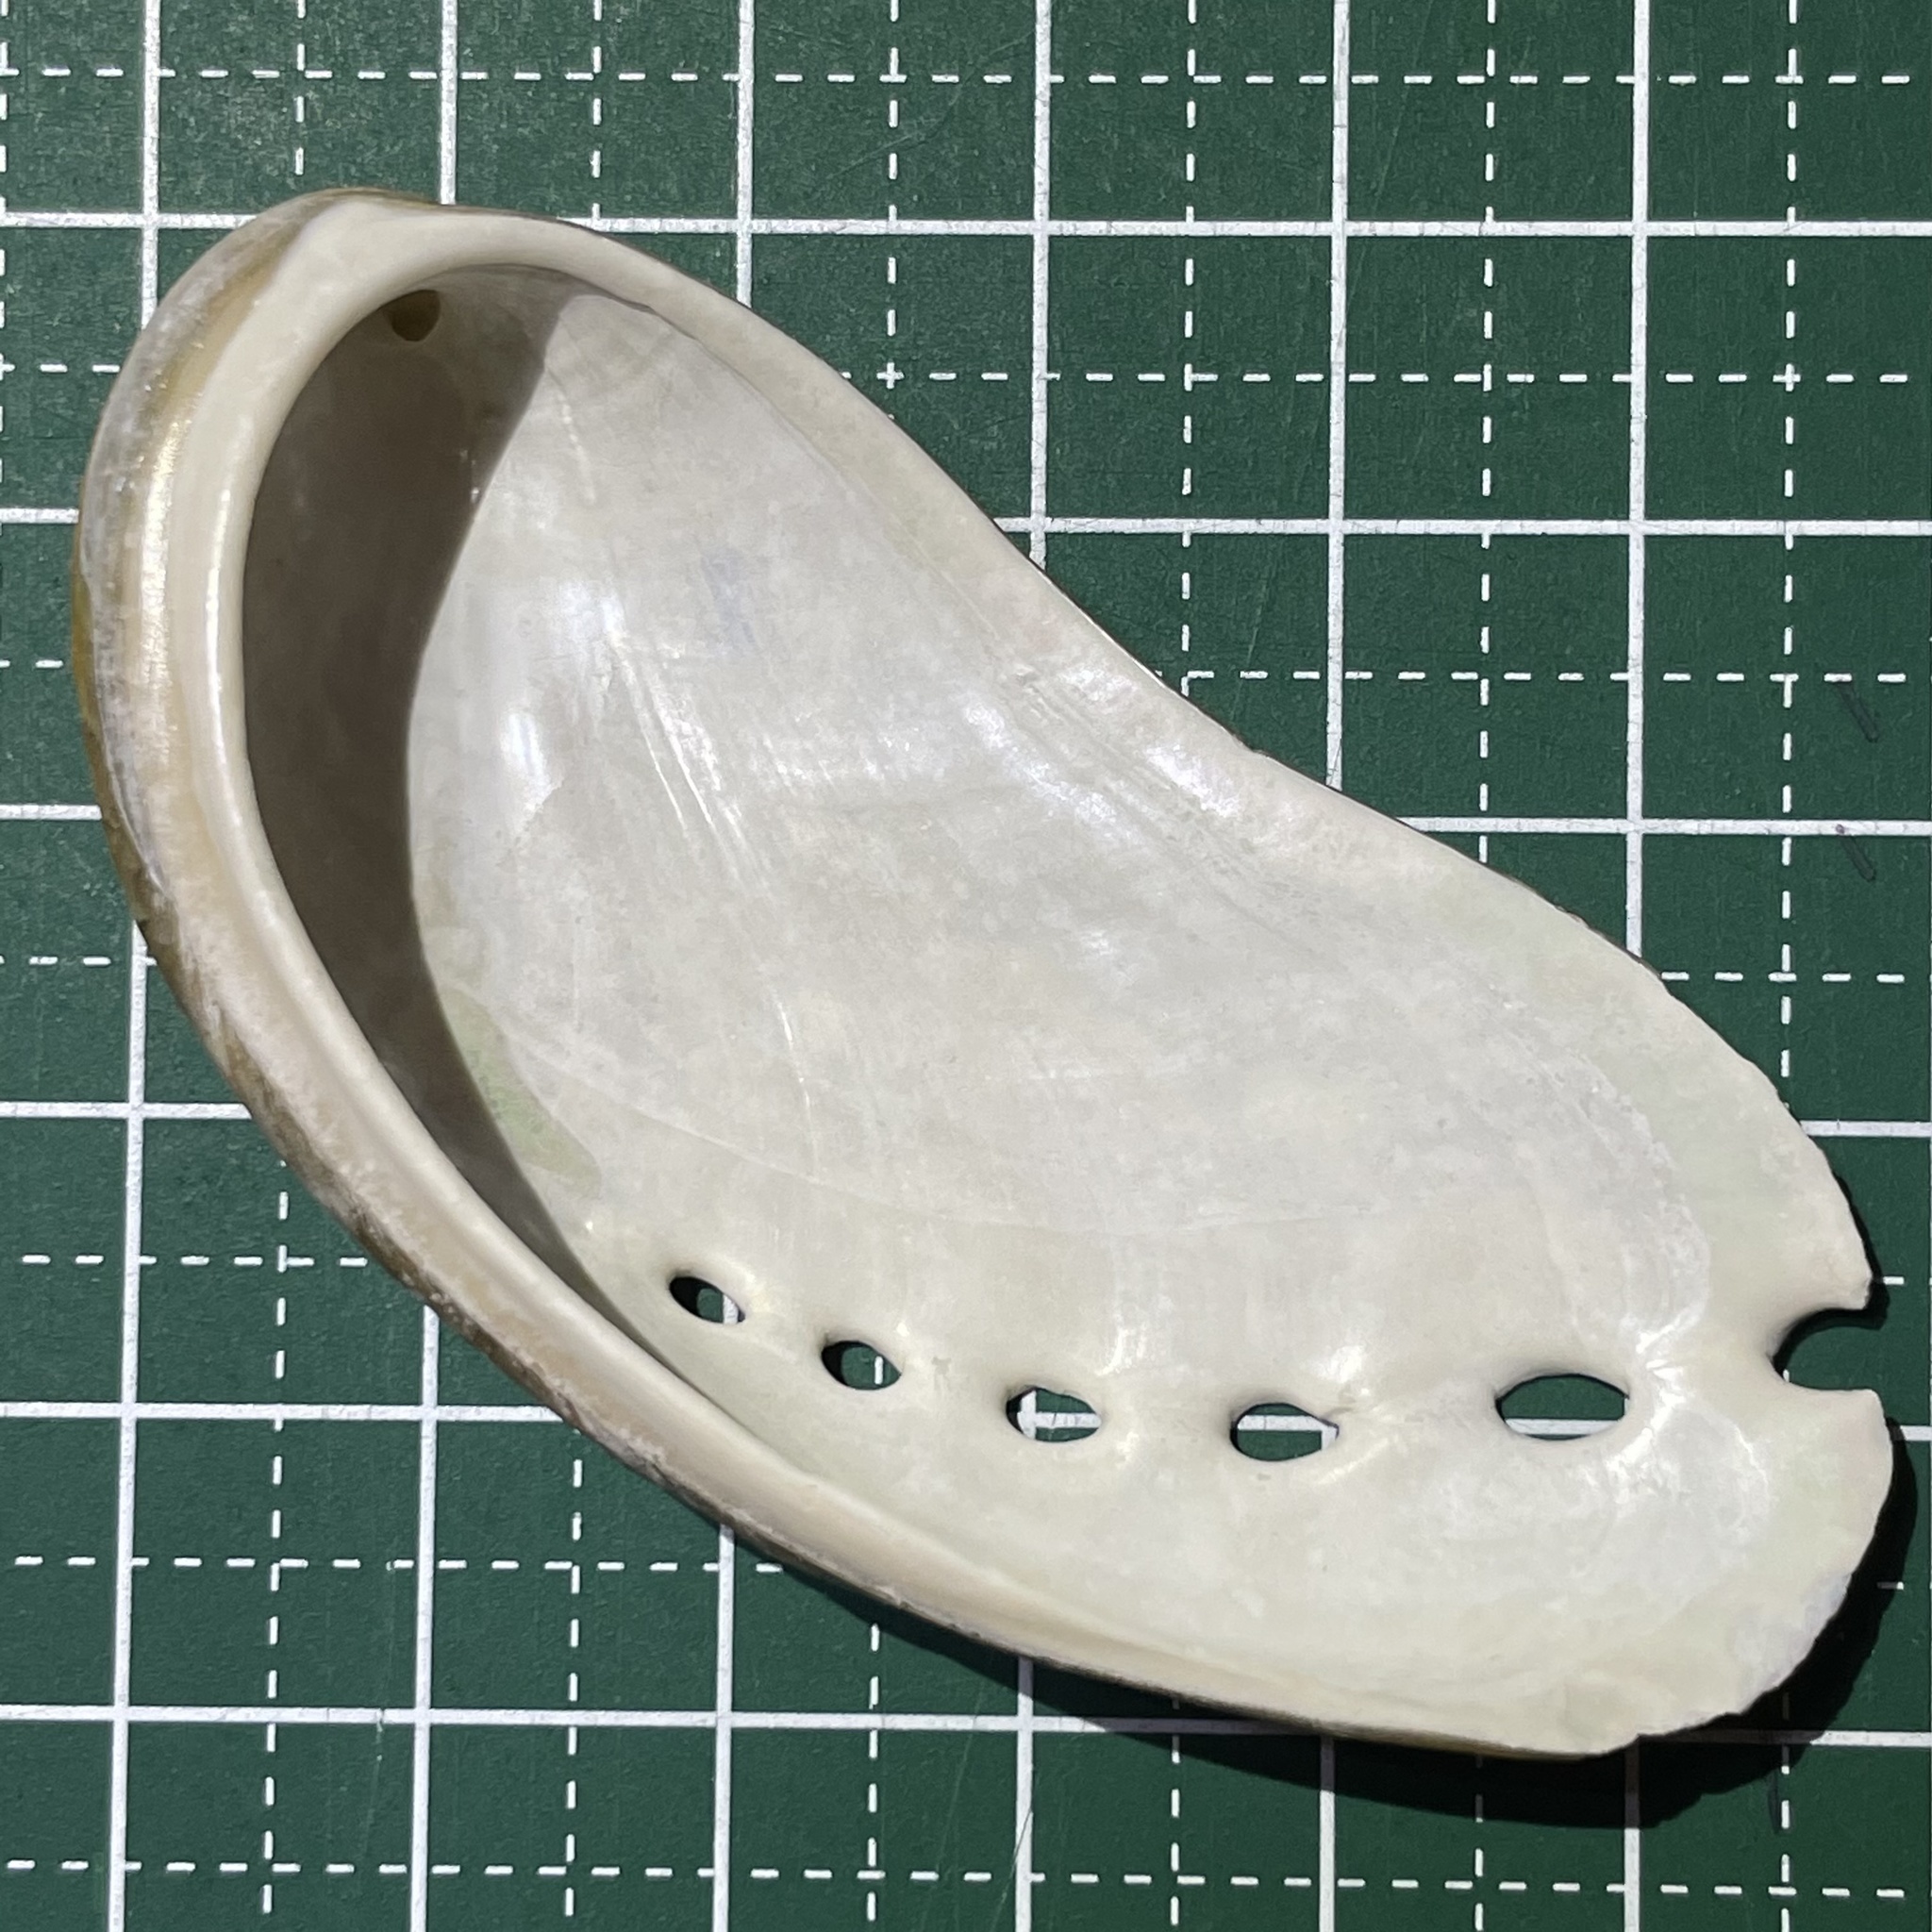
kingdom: Animalia
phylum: Mollusca
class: Gastropoda
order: Lepetellida
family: Haliotidae
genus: Haliotis
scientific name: Haliotis asinina
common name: Donkey's ear abalone
